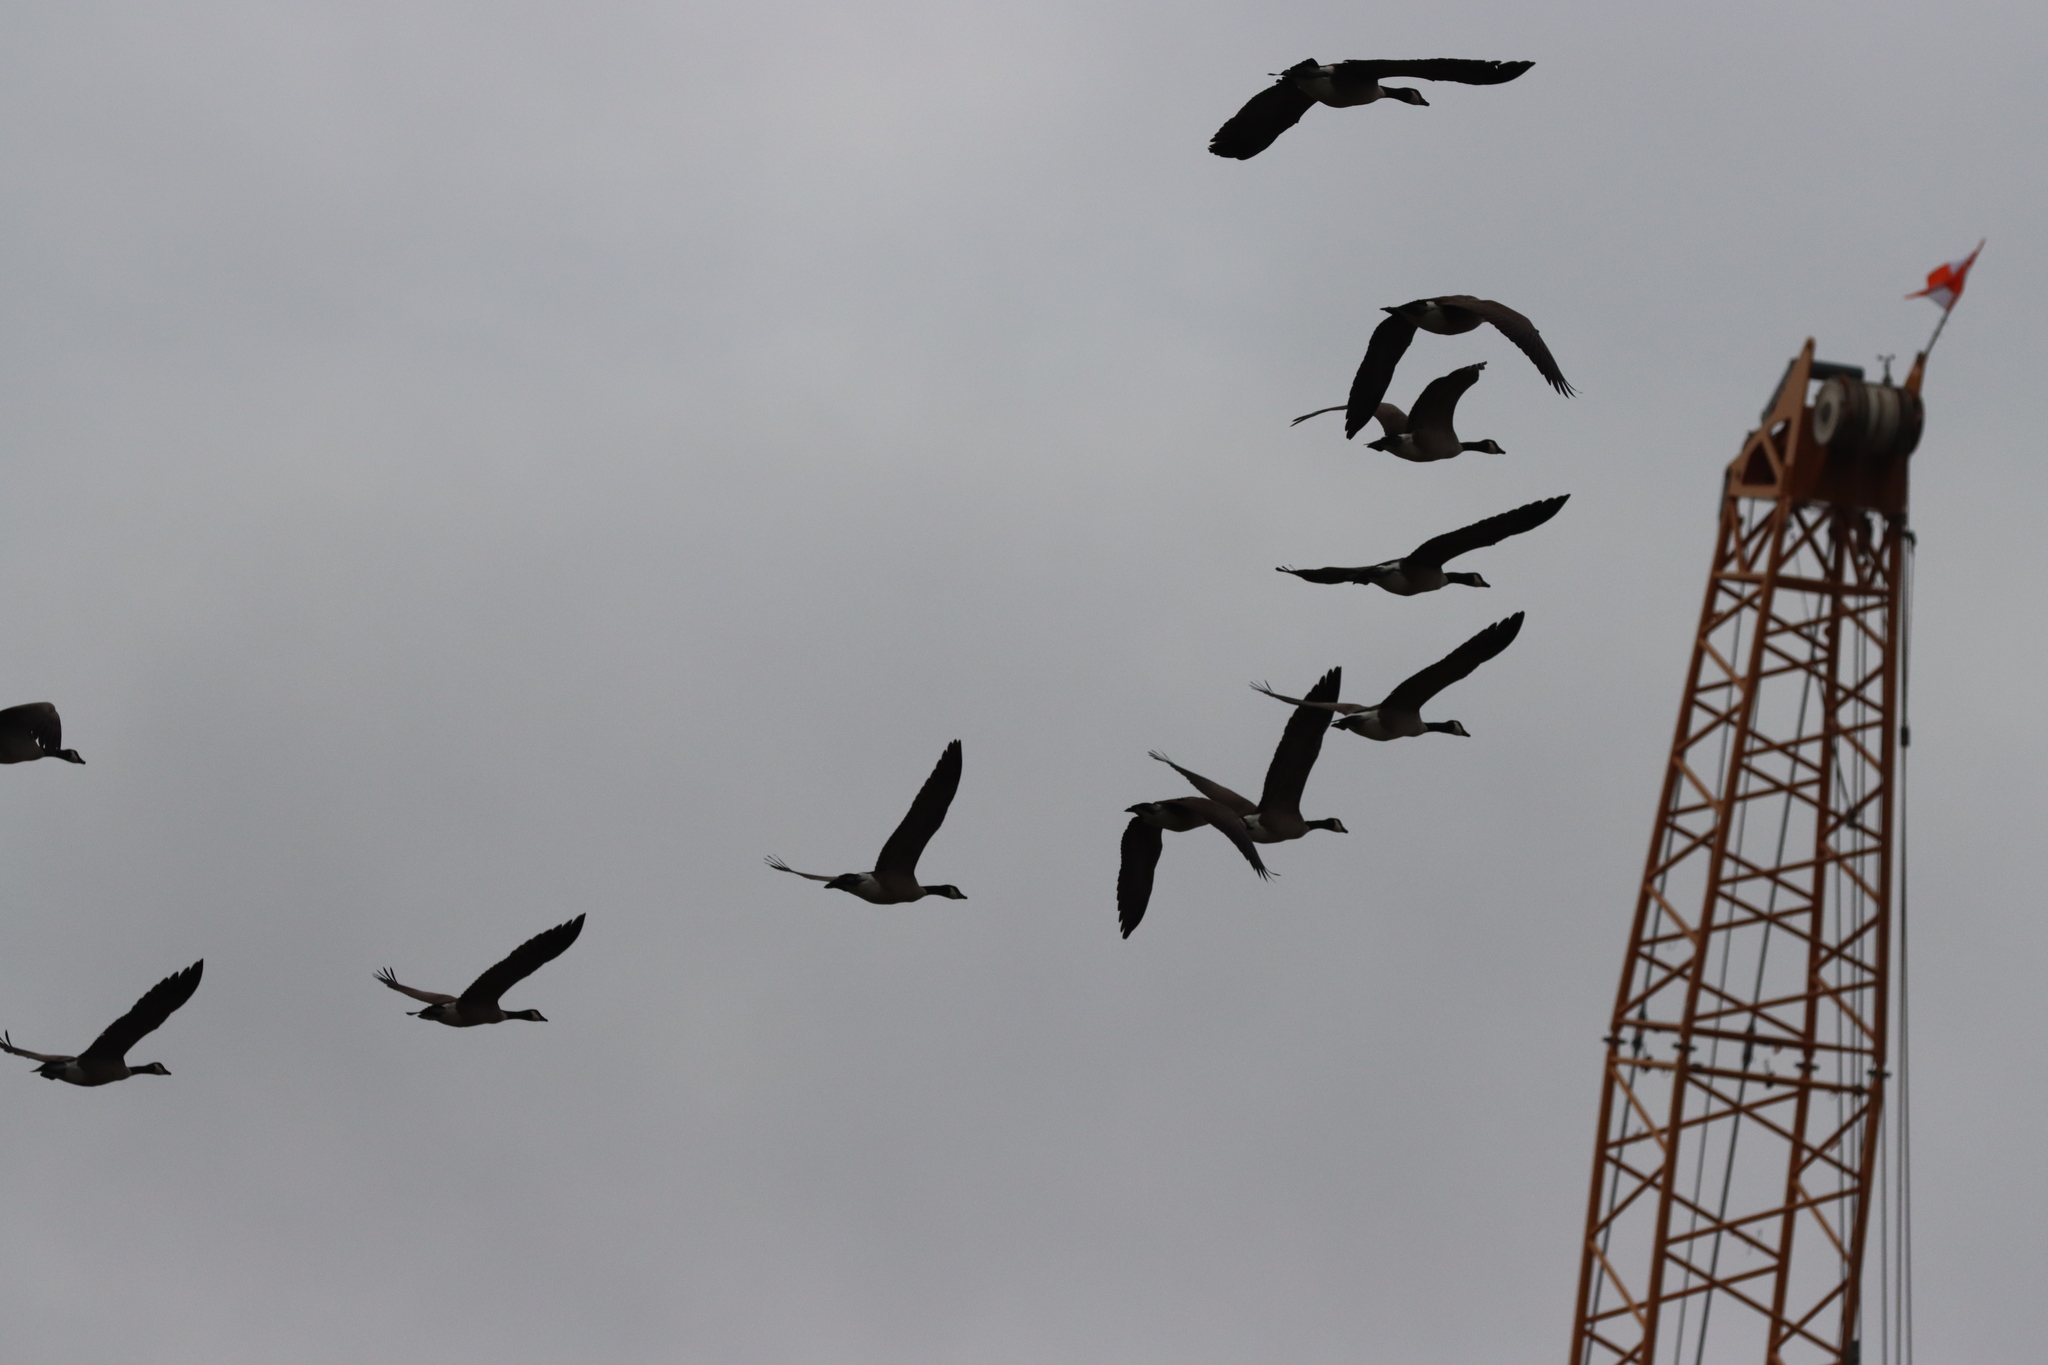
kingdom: Animalia
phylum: Chordata
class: Aves
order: Anseriformes
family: Anatidae
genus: Branta
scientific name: Branta canadensis
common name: Canada goose
